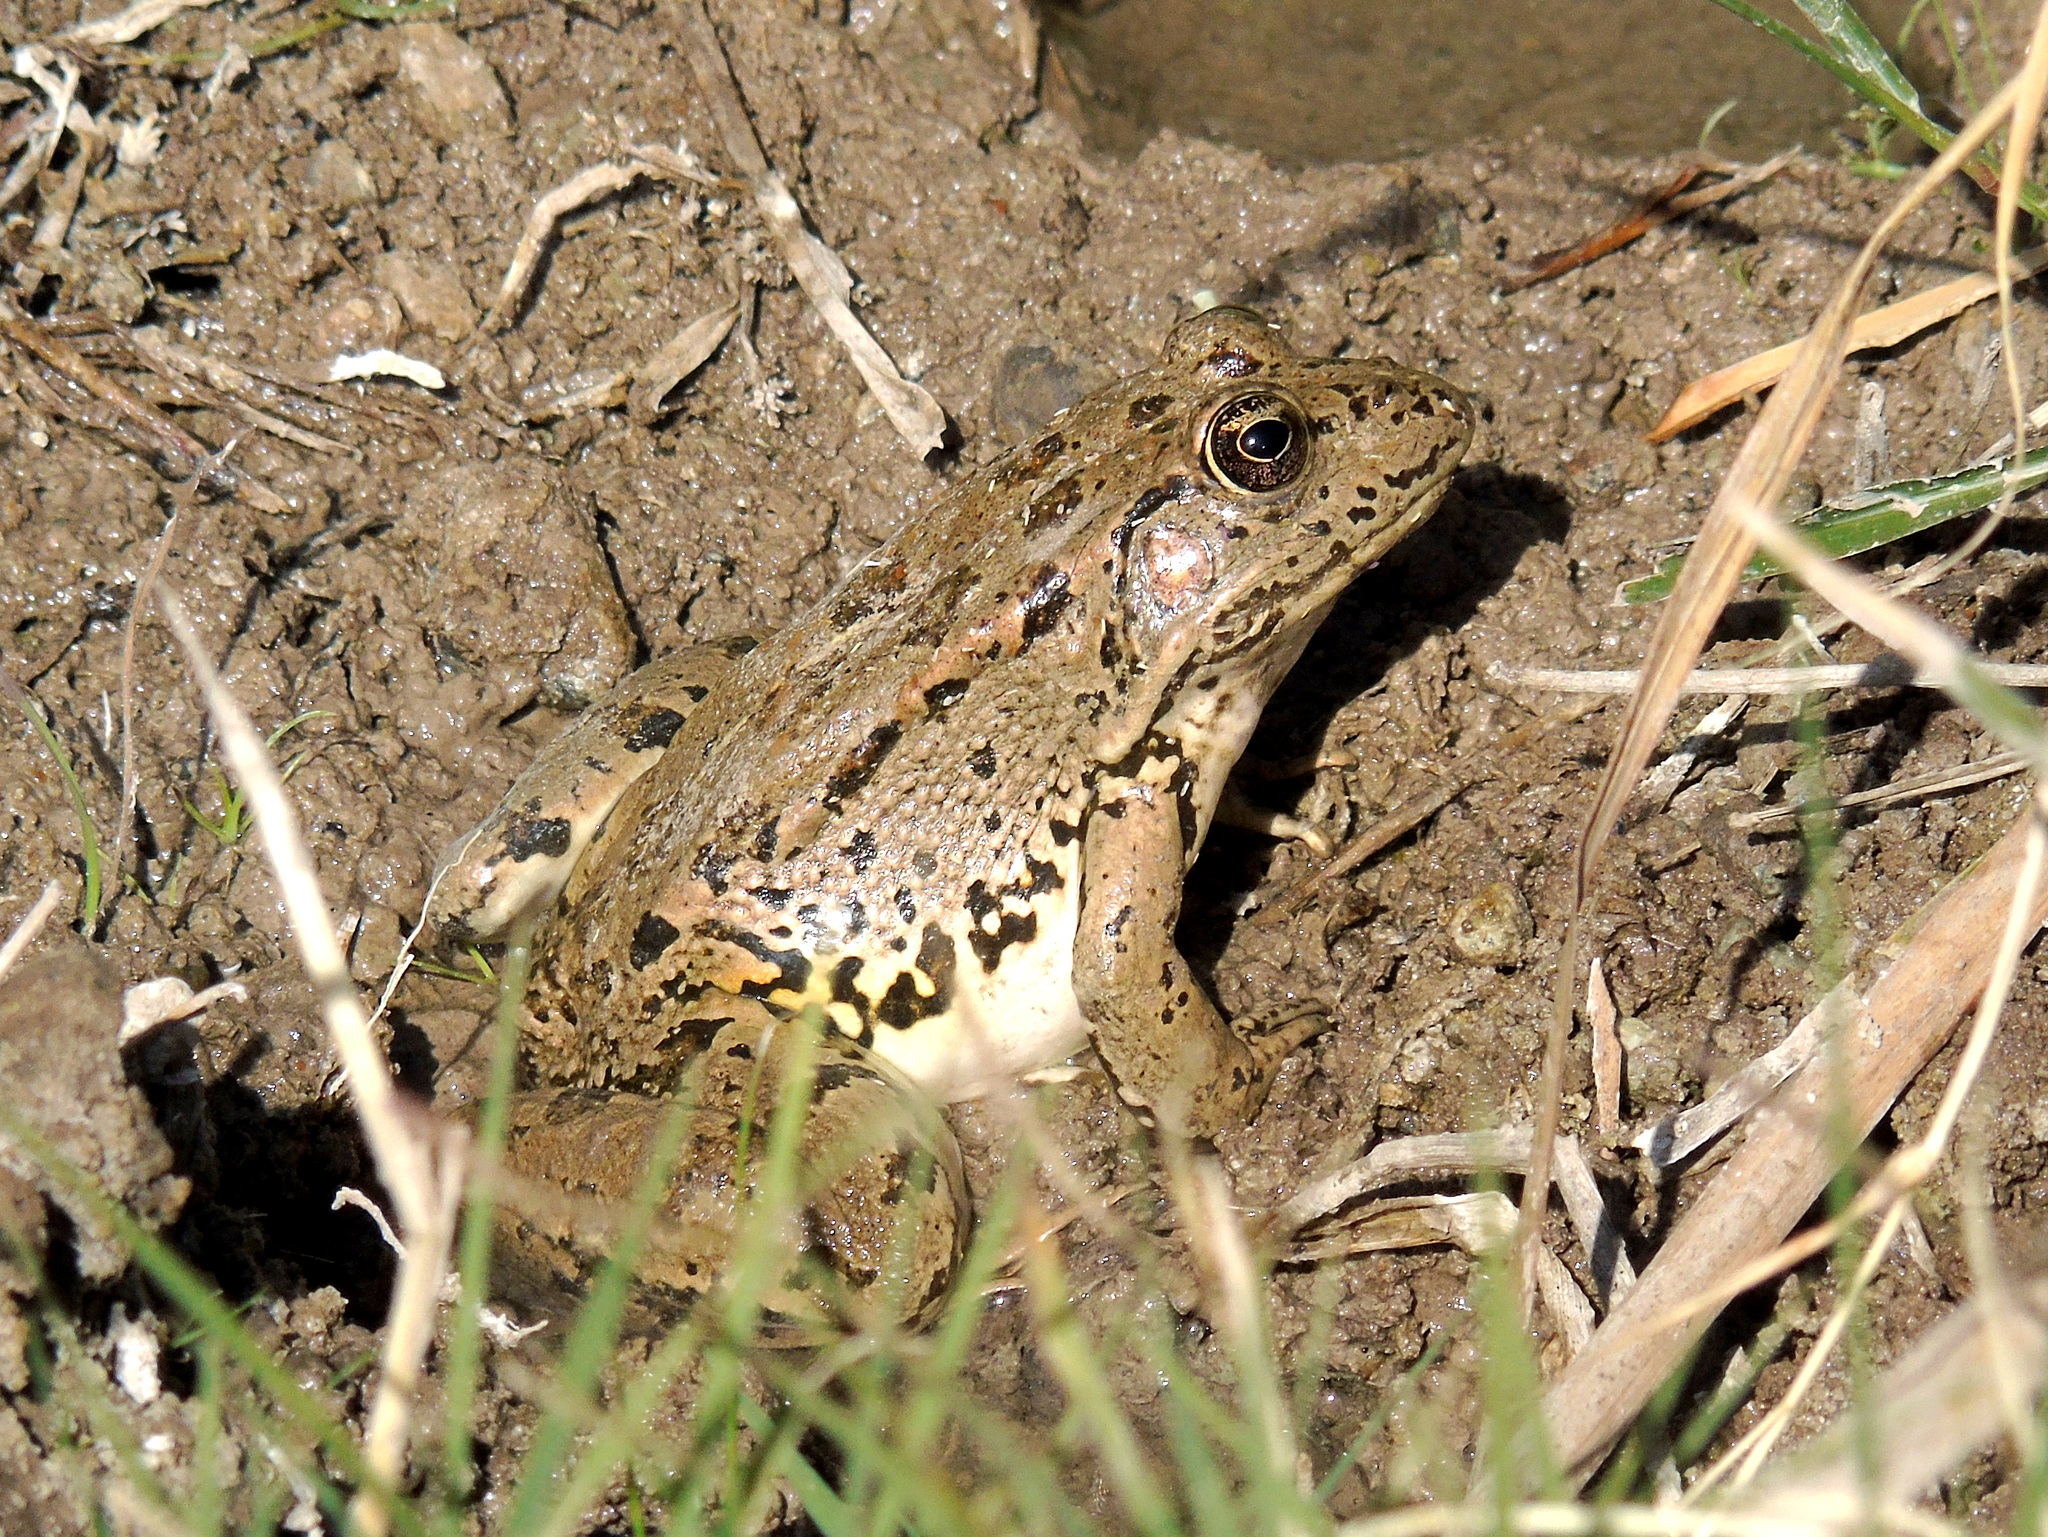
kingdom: Animalia
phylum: Chordata
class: Amphibia
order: Anura
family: Ranidae
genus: Pelophylax
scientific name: Pelophylax ridibundus
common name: Marsh frog
